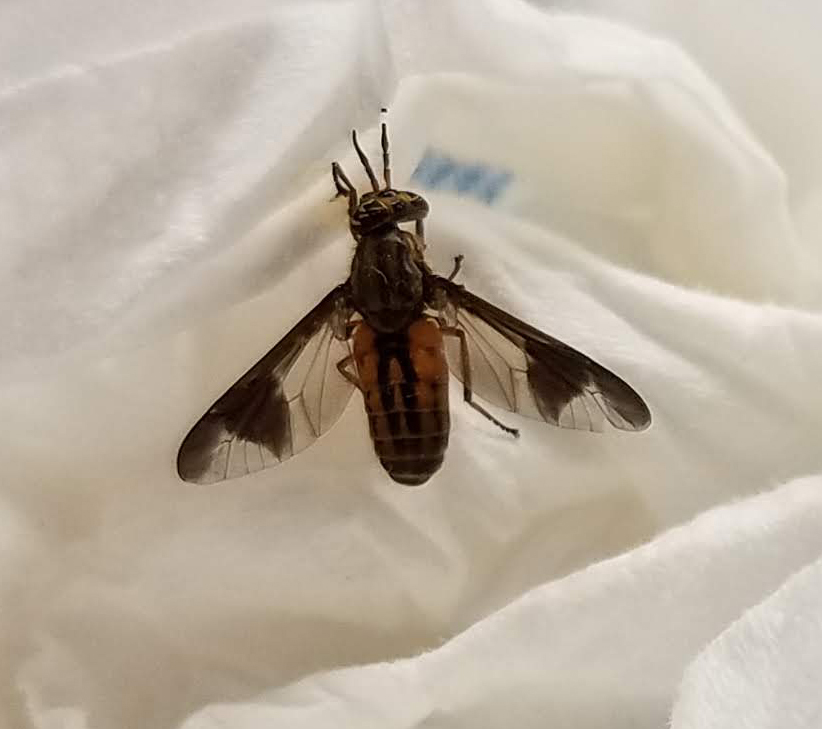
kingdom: Animalia
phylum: Arthropoda
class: Insecta
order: Diptera
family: Tabanidae
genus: Chrysops
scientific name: Chrysops striatus
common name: Striated deer fly
